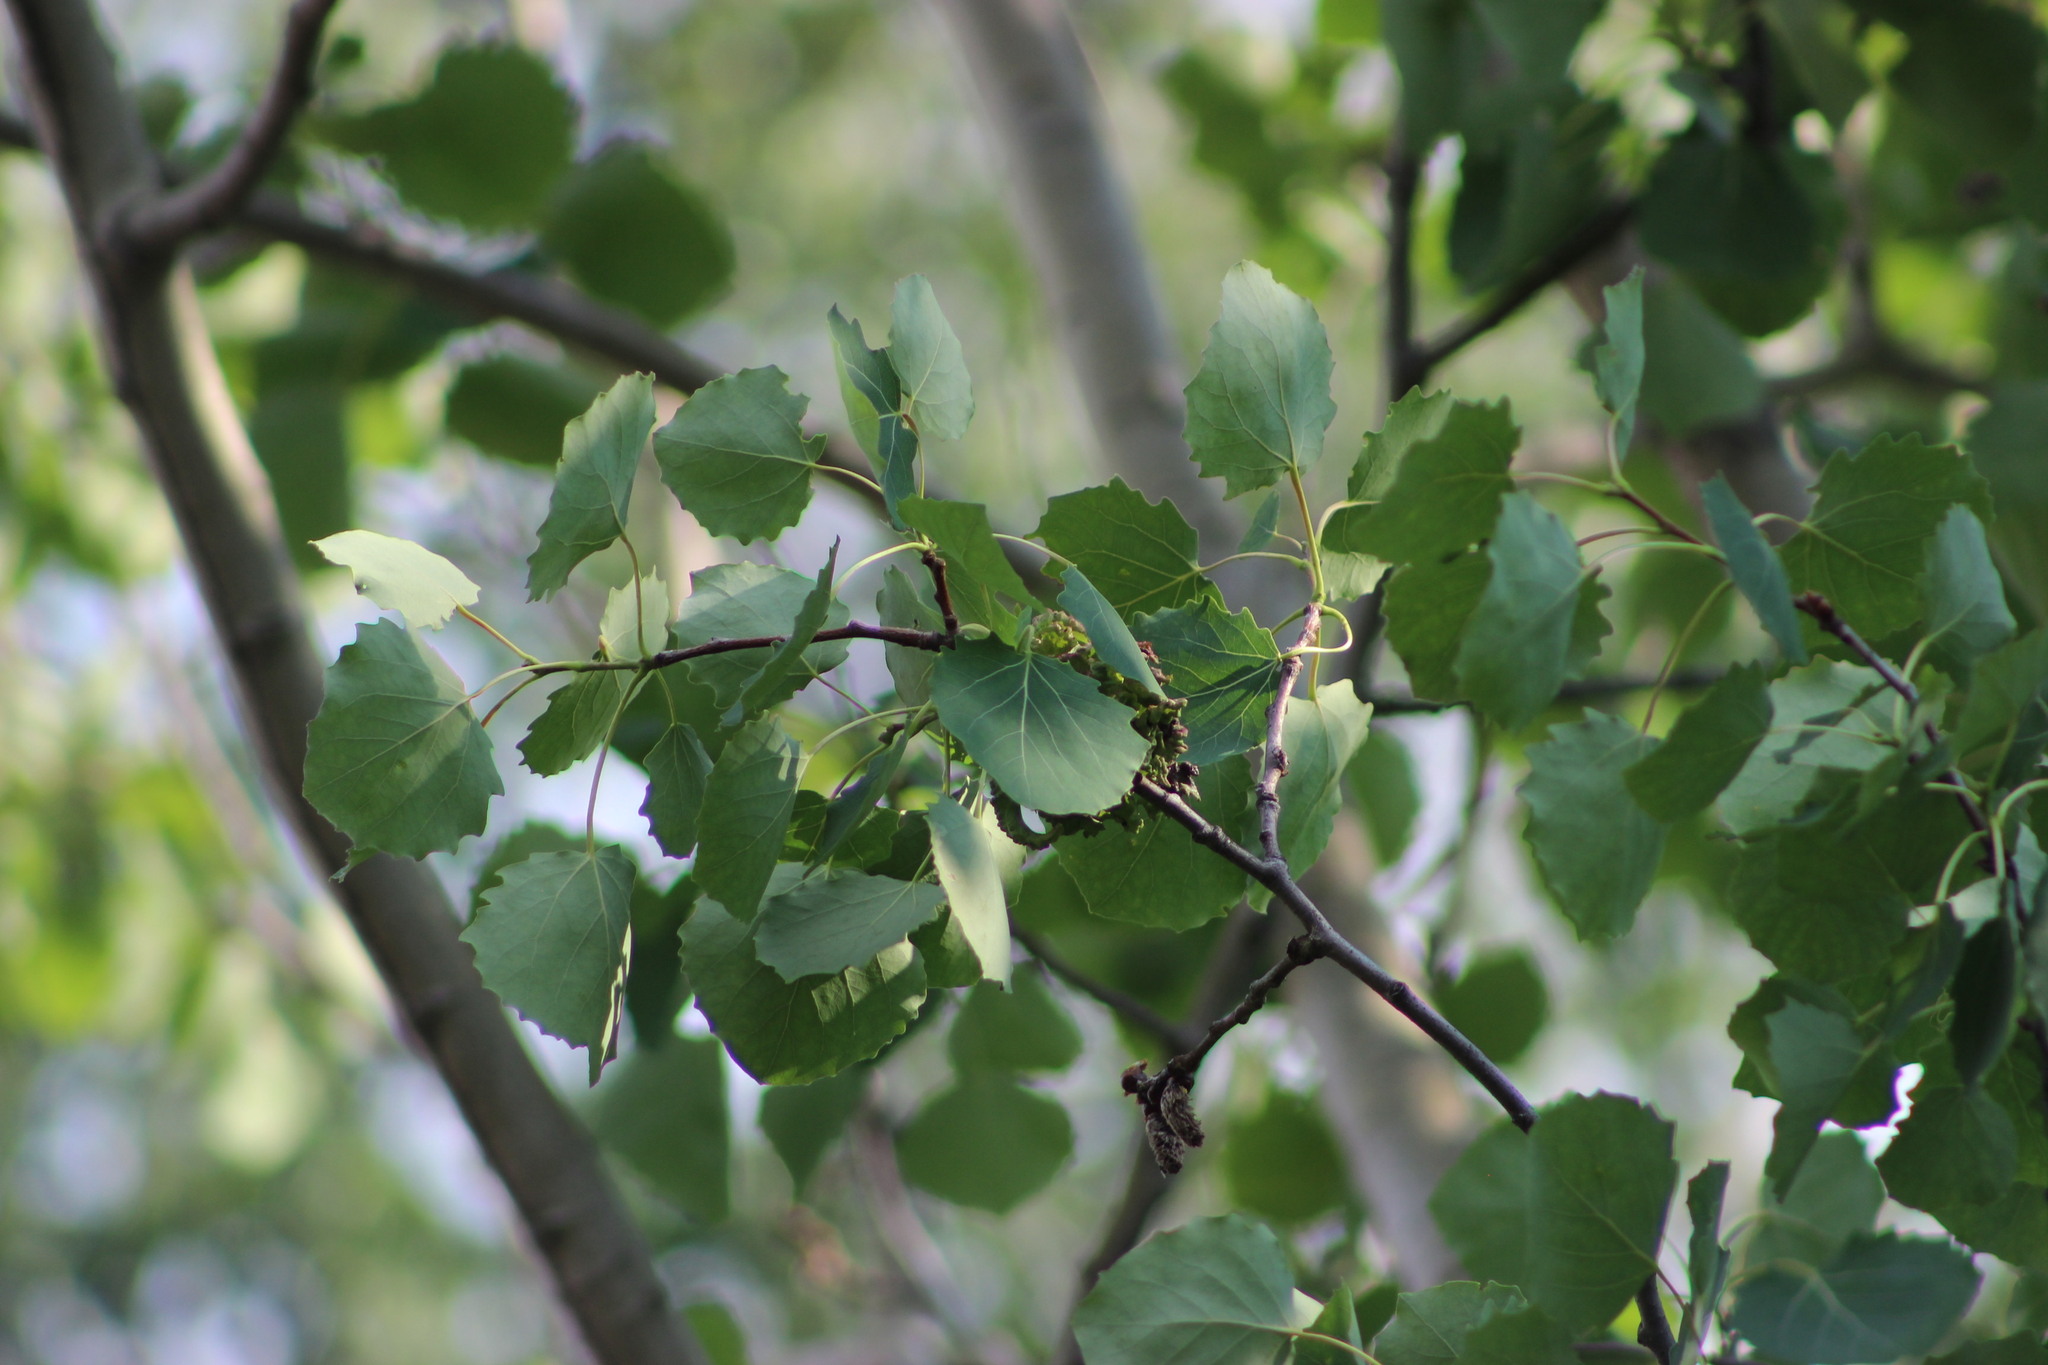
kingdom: Plantae
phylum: Tracheophyta
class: Magnoliopsida
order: Malpighiales
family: Salicaceae
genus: Populus
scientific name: Populus tremula
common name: European aspen
